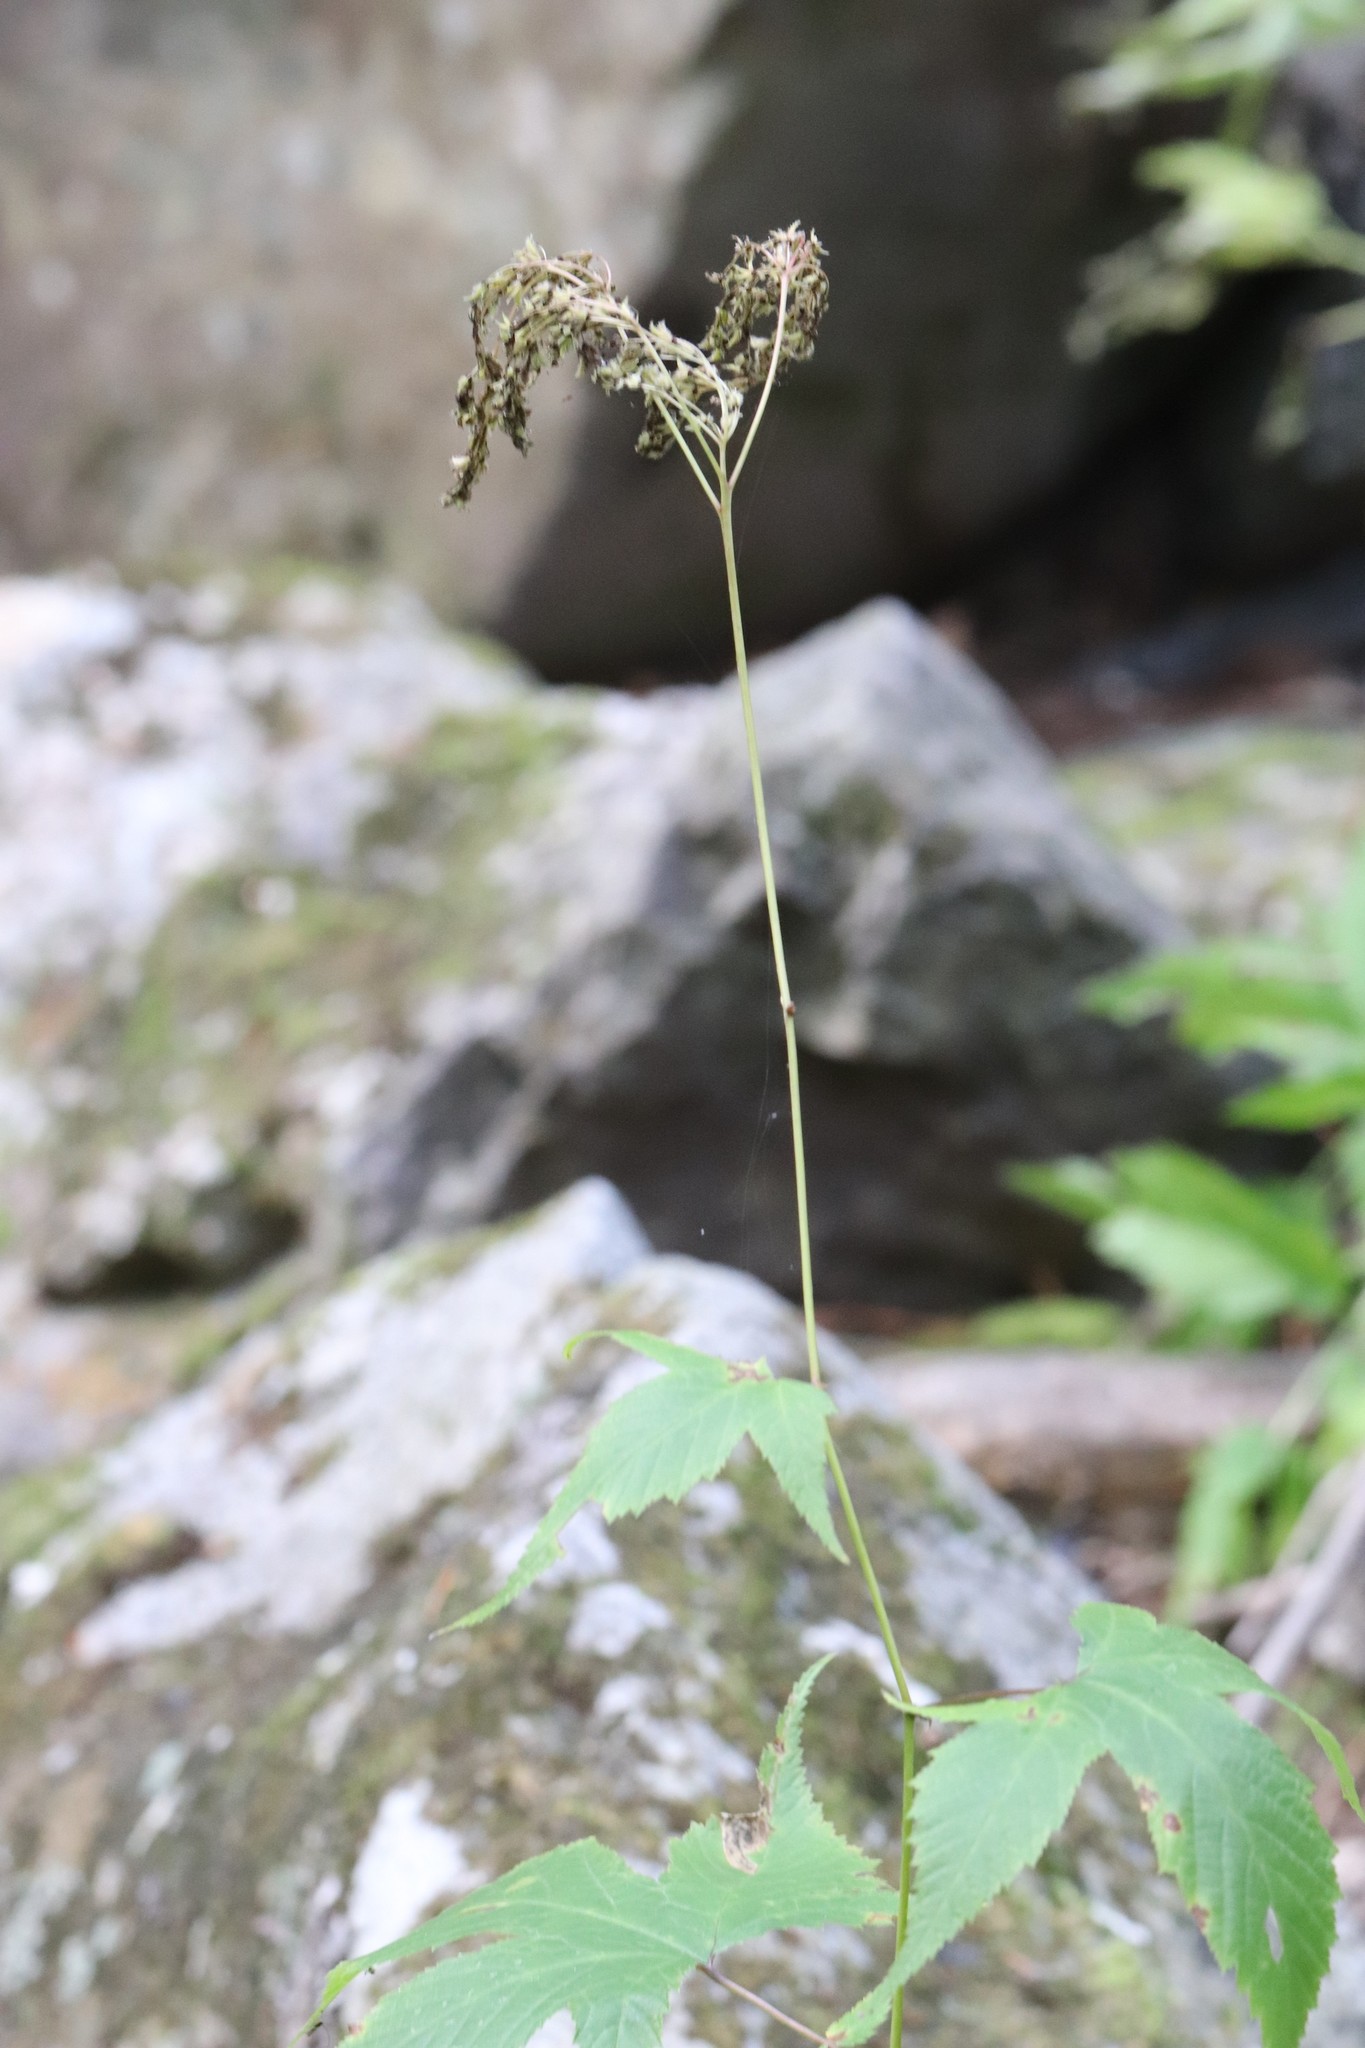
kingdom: Plantae
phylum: Tracheophyta
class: Magnoliopsida
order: Rosales
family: Rosaceae
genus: Filipendula
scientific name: Filipendula digitata
